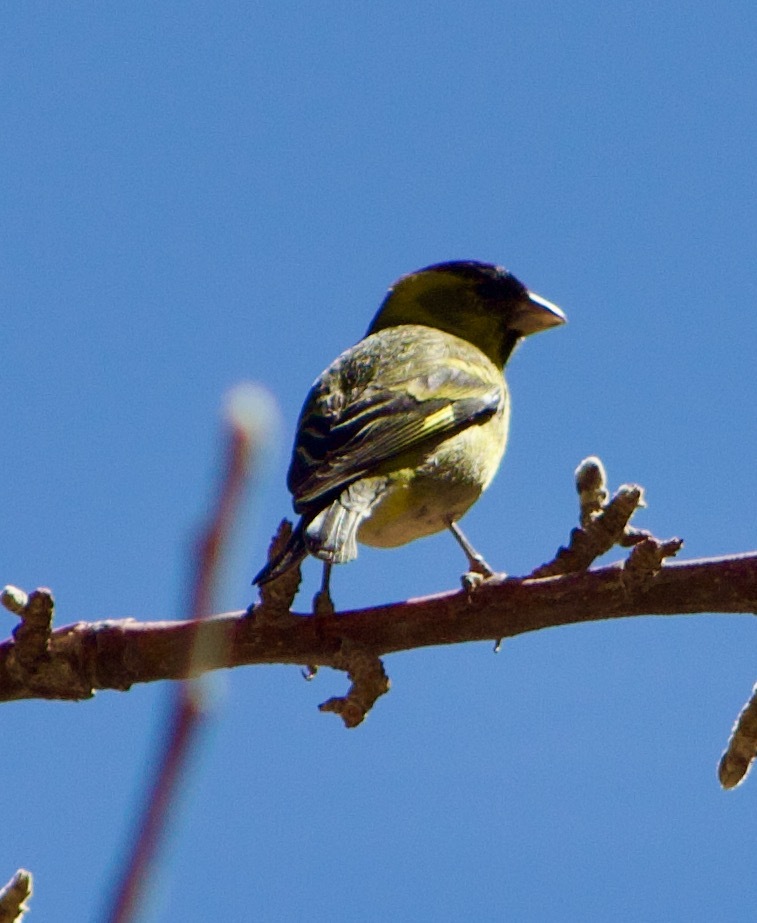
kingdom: Animalia
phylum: Chordata
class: Aves
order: Passeriformes
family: Fringillidae
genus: Spinus
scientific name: Spinus barbatus
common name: Black-chinned siskin
